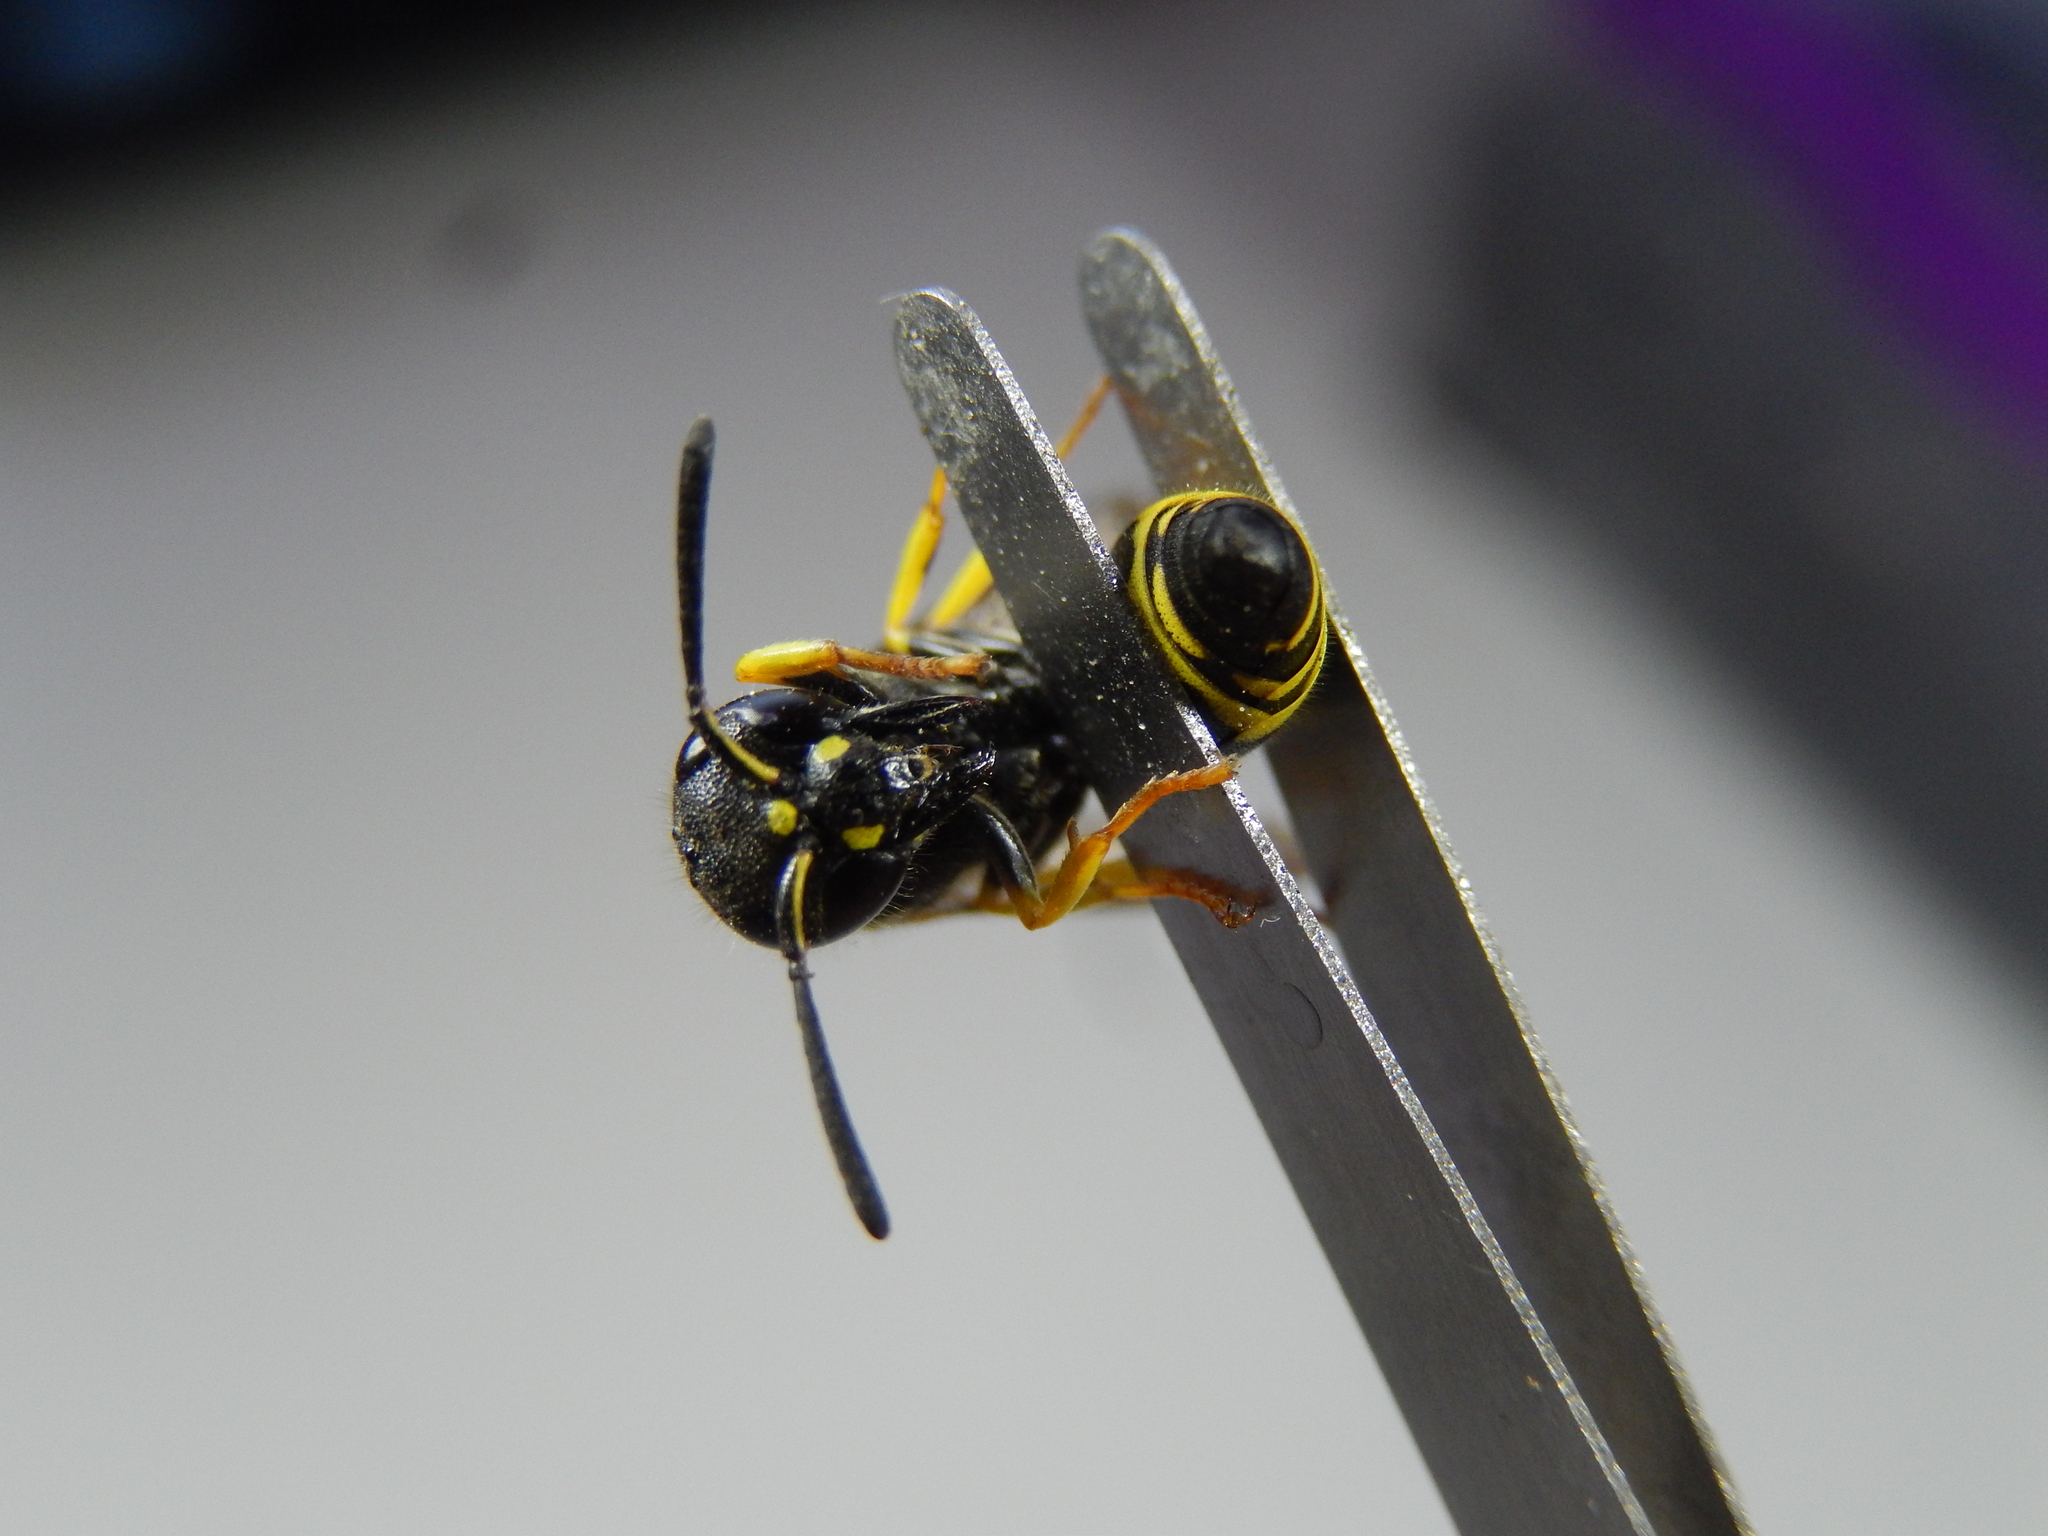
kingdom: Animalia
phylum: Arthropoda
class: Insecta
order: Hymenoptera
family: Vespidae
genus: Ancistrocerus
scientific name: Ancistrocerus gazella
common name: European tube wasp
